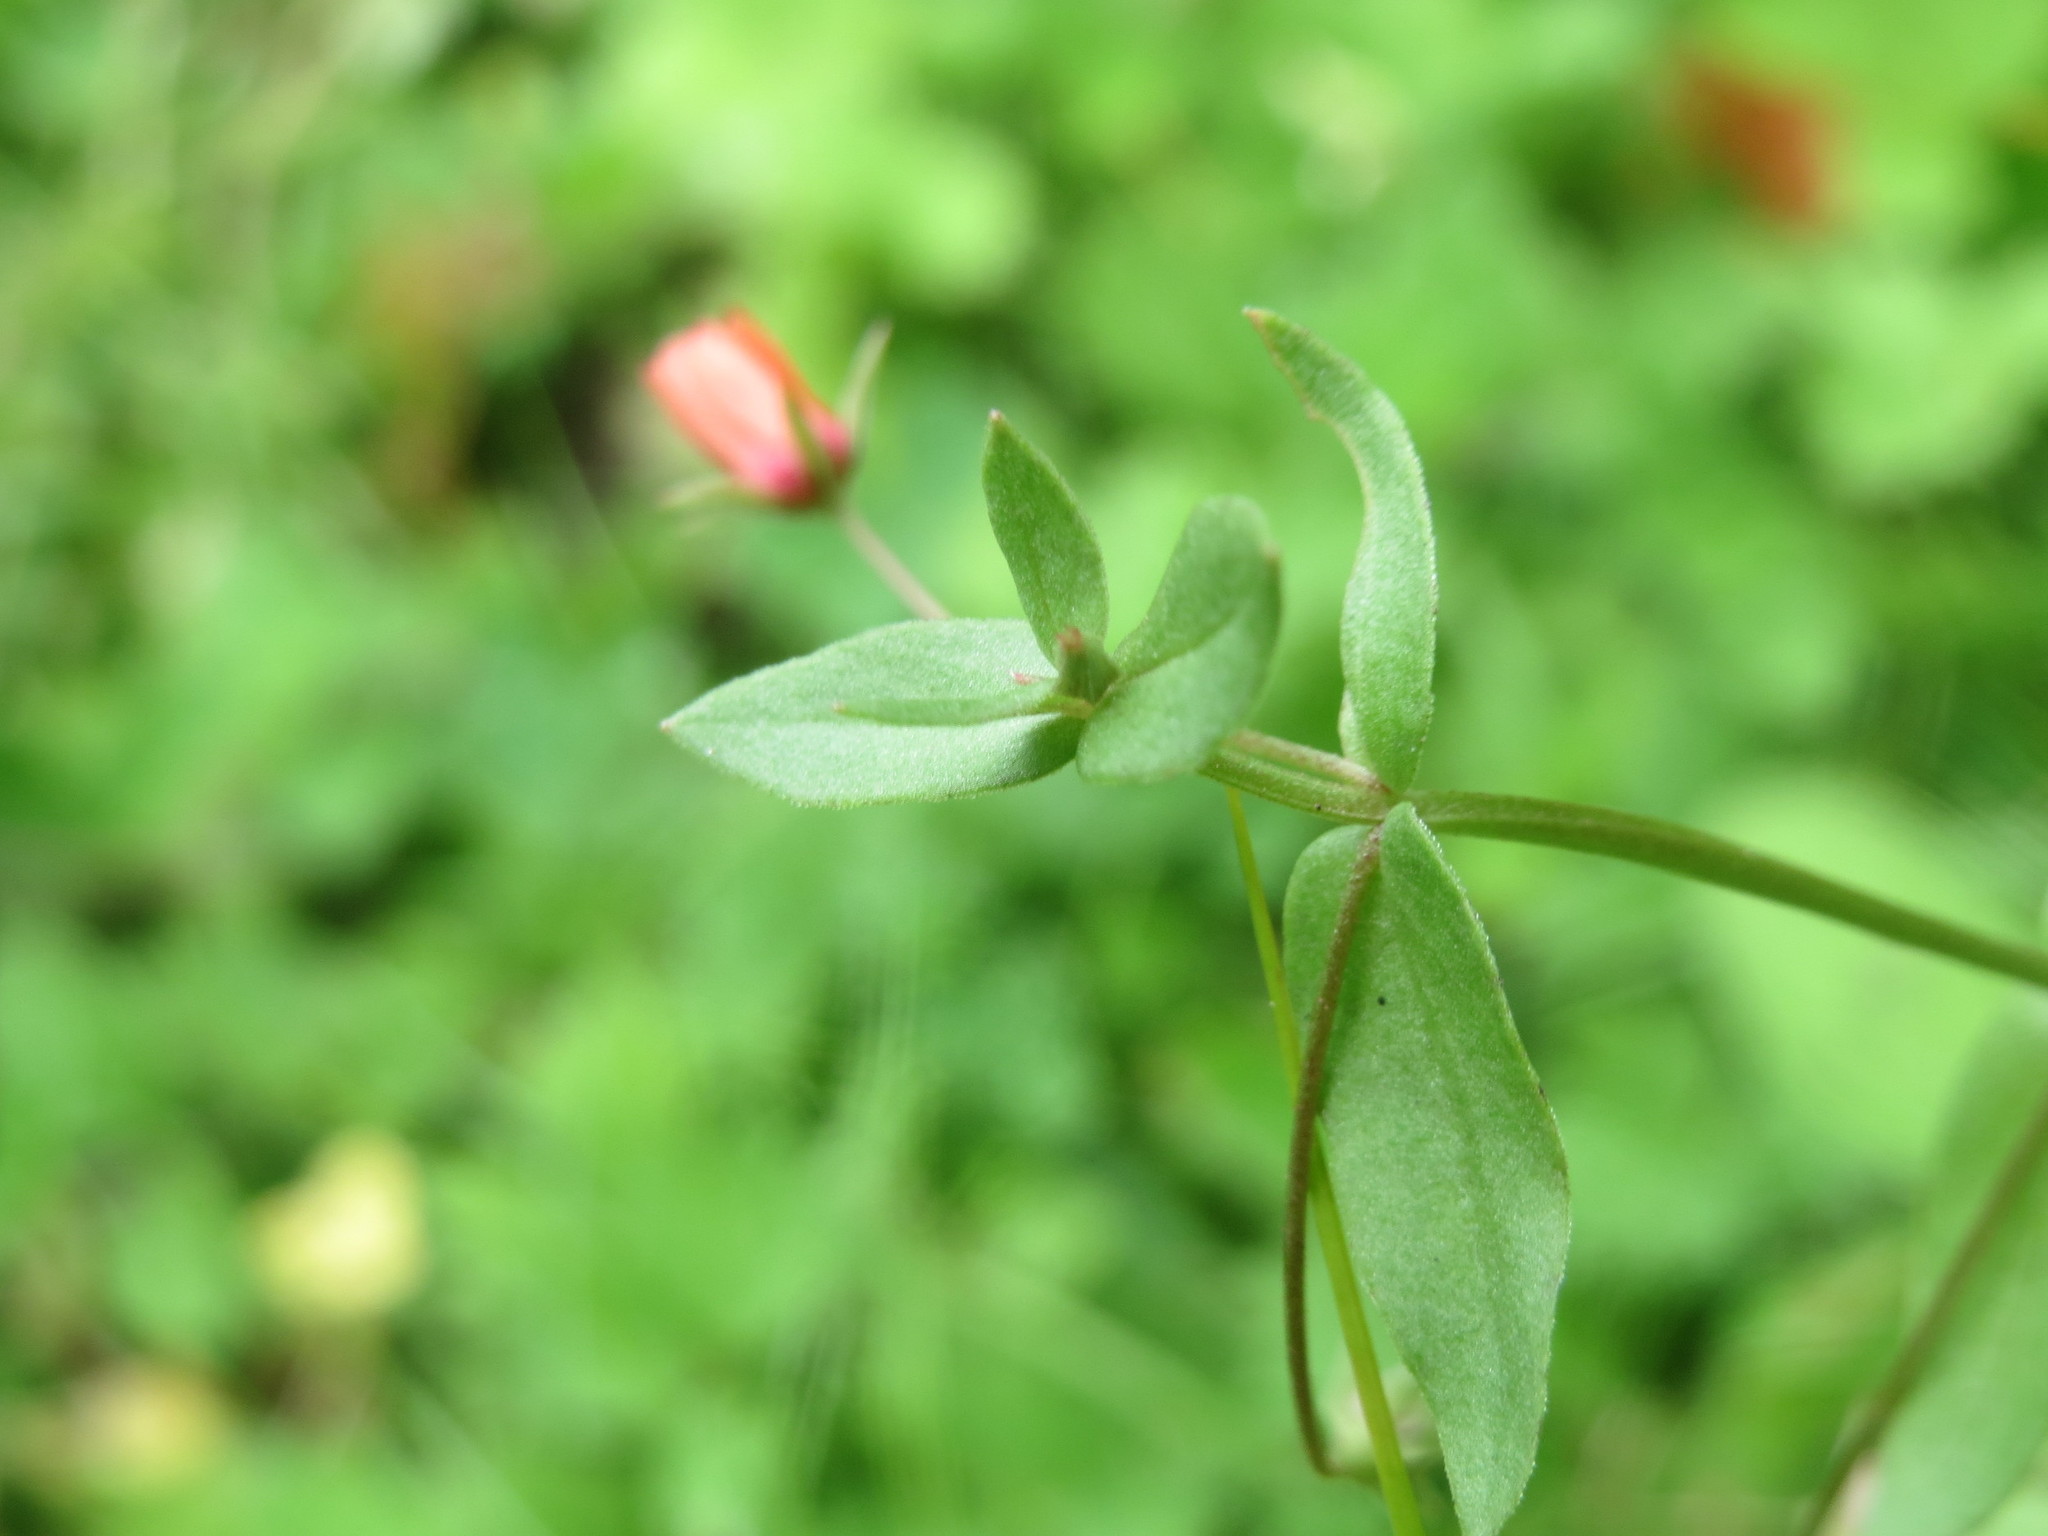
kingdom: Plantae
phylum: Tracheophyta
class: Magnoliopsida
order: Ericales
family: Primulaceae
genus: Lysimachia
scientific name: Lysimachia arvensis
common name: Scarlet pimpernel
